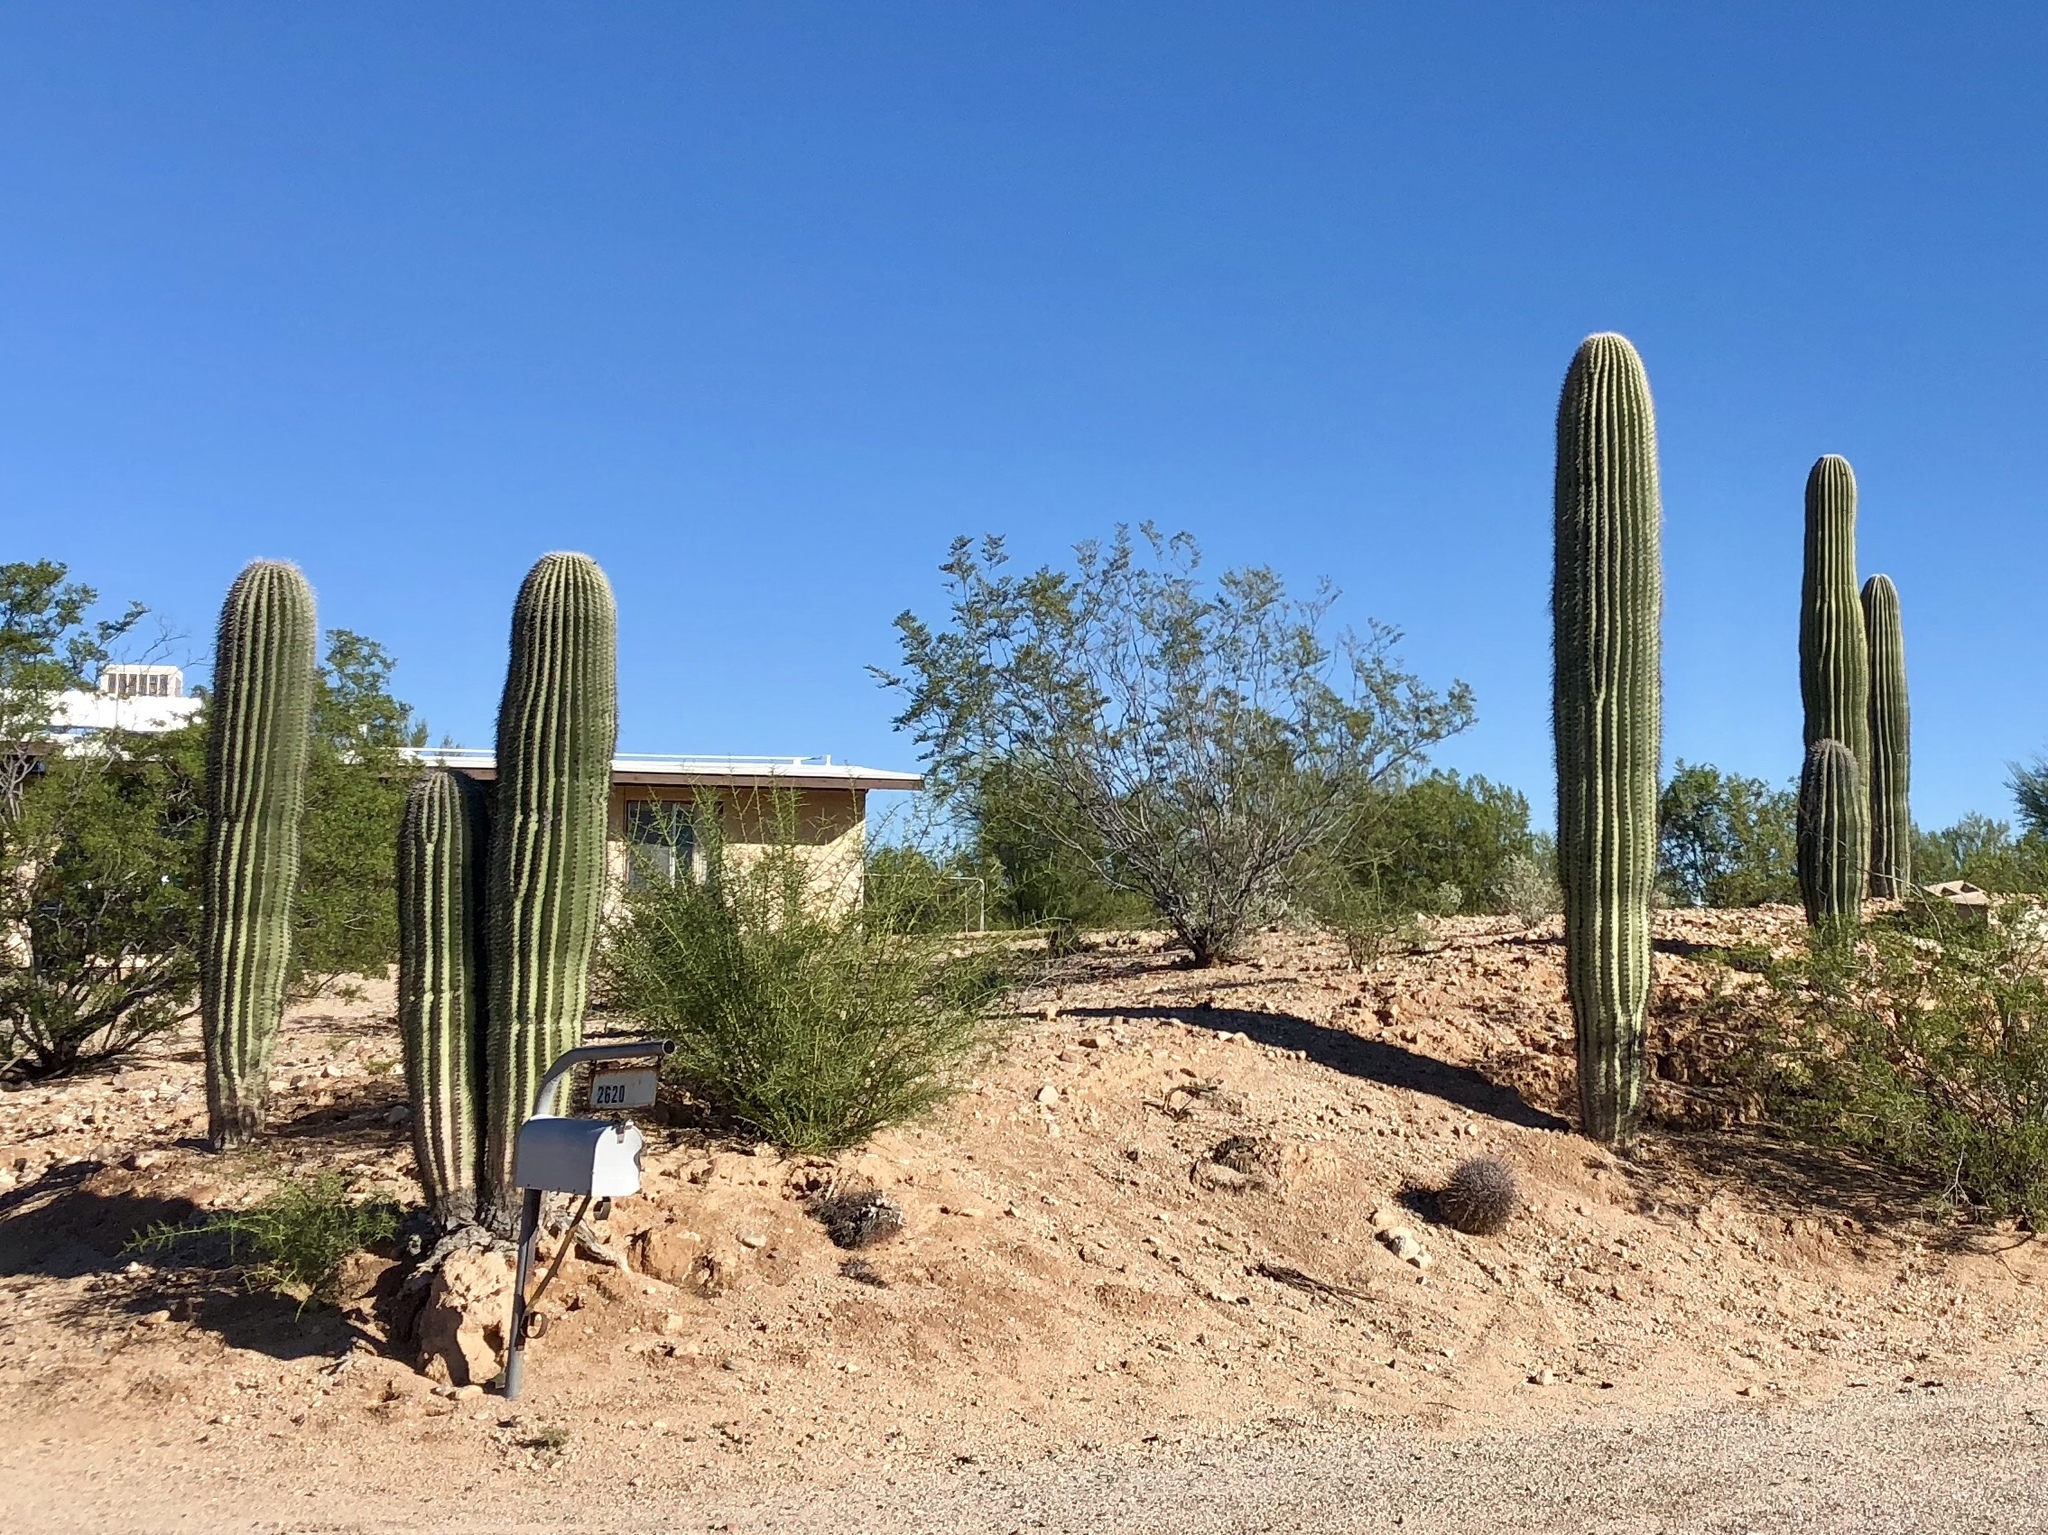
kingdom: Plantae
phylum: Tracheophyta
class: Magnoliopsida
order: Caryophyllales
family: Cactaceae
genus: Carnegiea
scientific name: Carnegiea gigantea
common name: Saguaro
